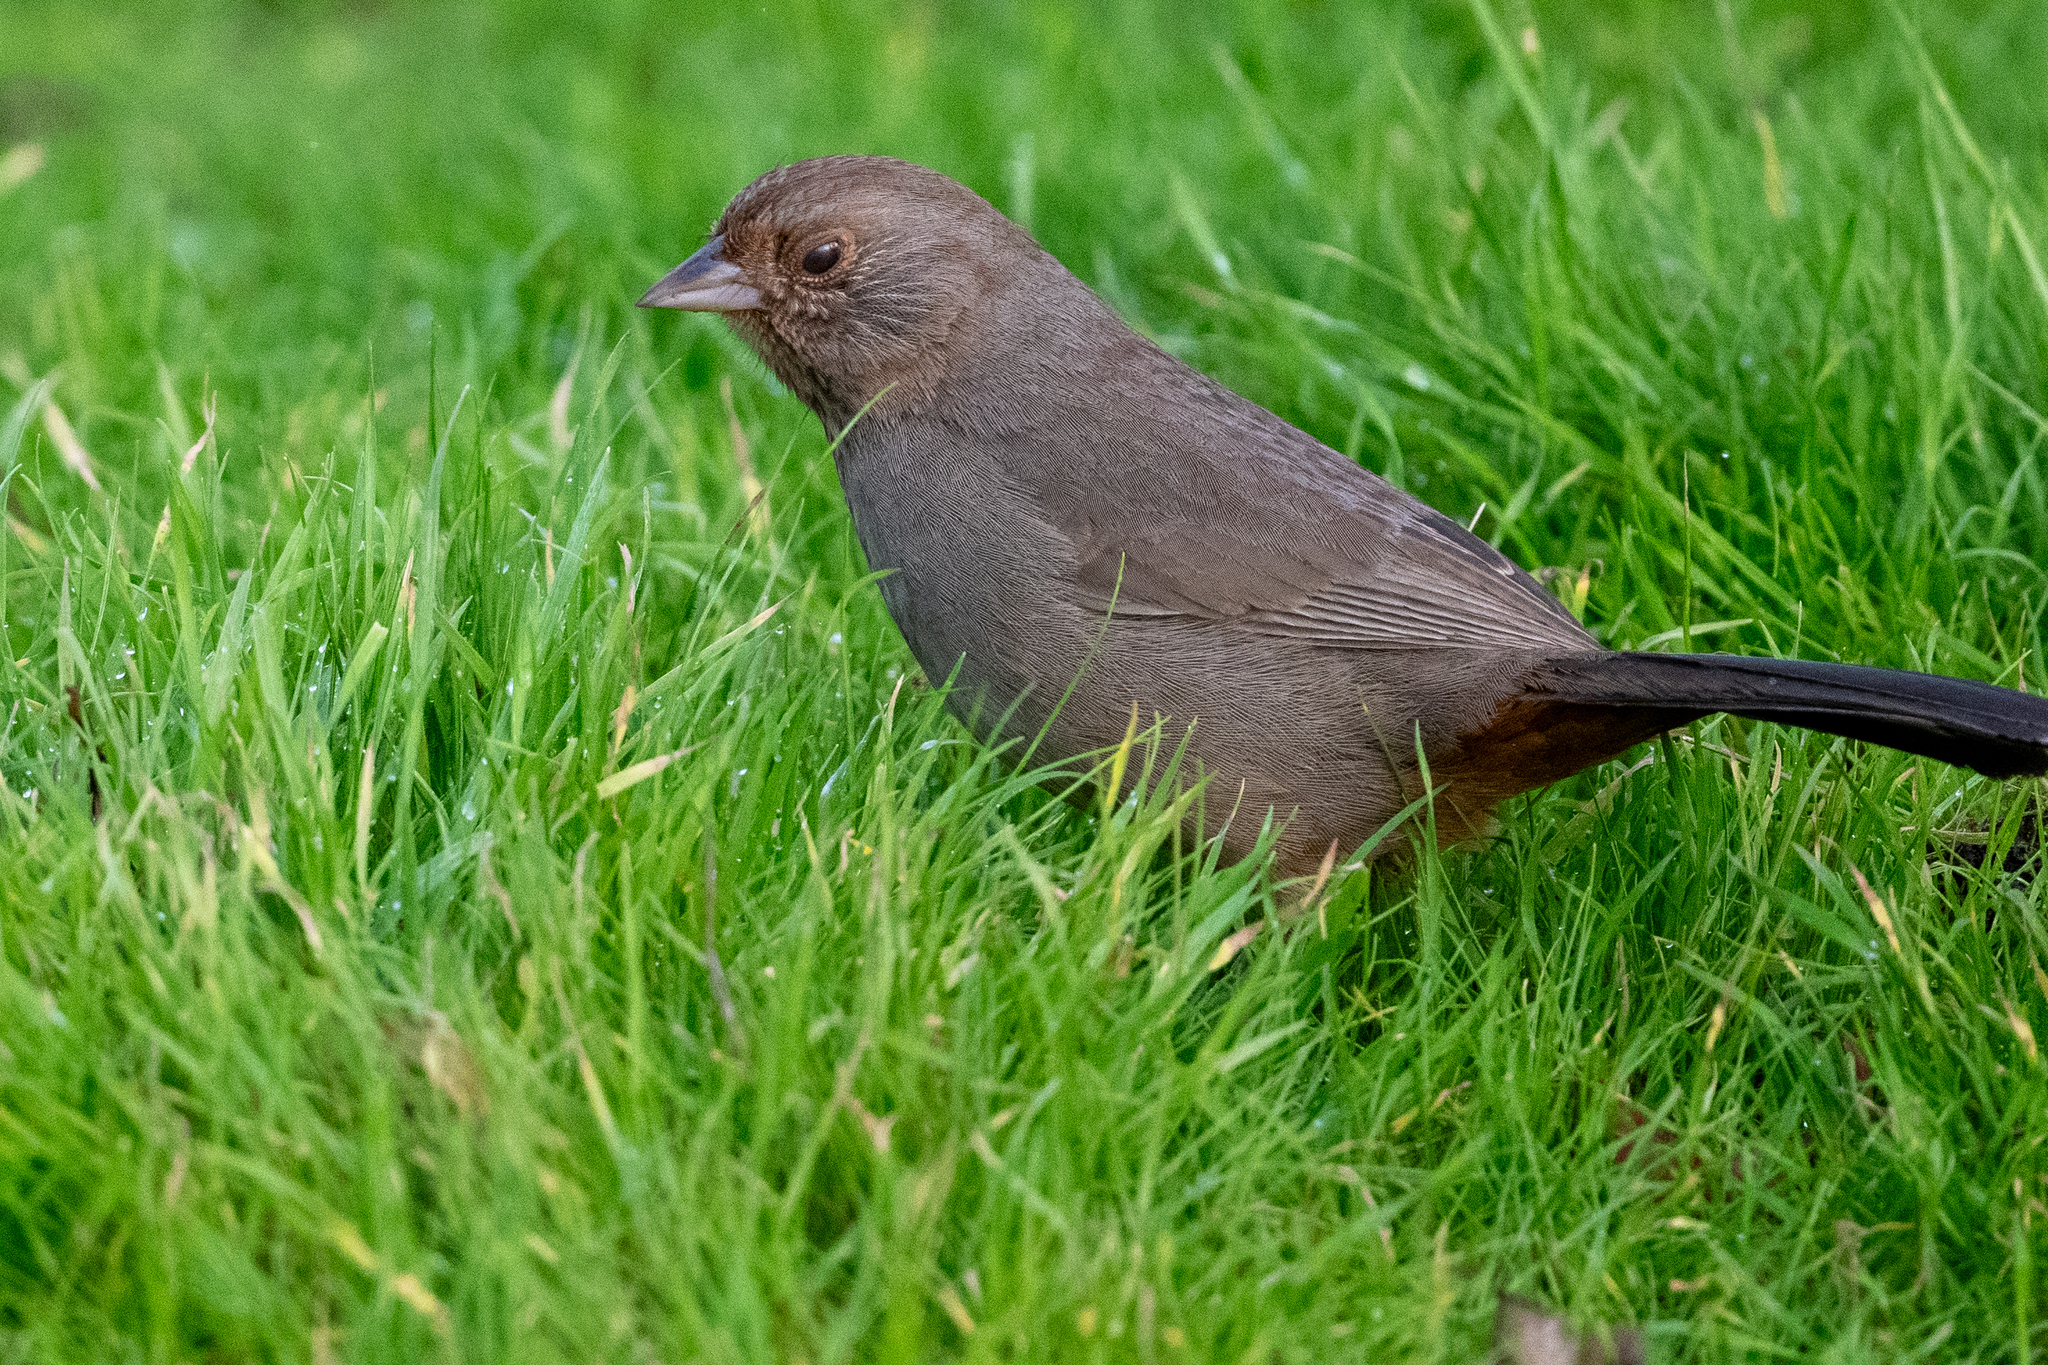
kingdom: Animalia
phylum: Chordata
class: Aves
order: Passeriformes
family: Passerellidae
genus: Melozone
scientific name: Melozone crissalis
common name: California towhee
